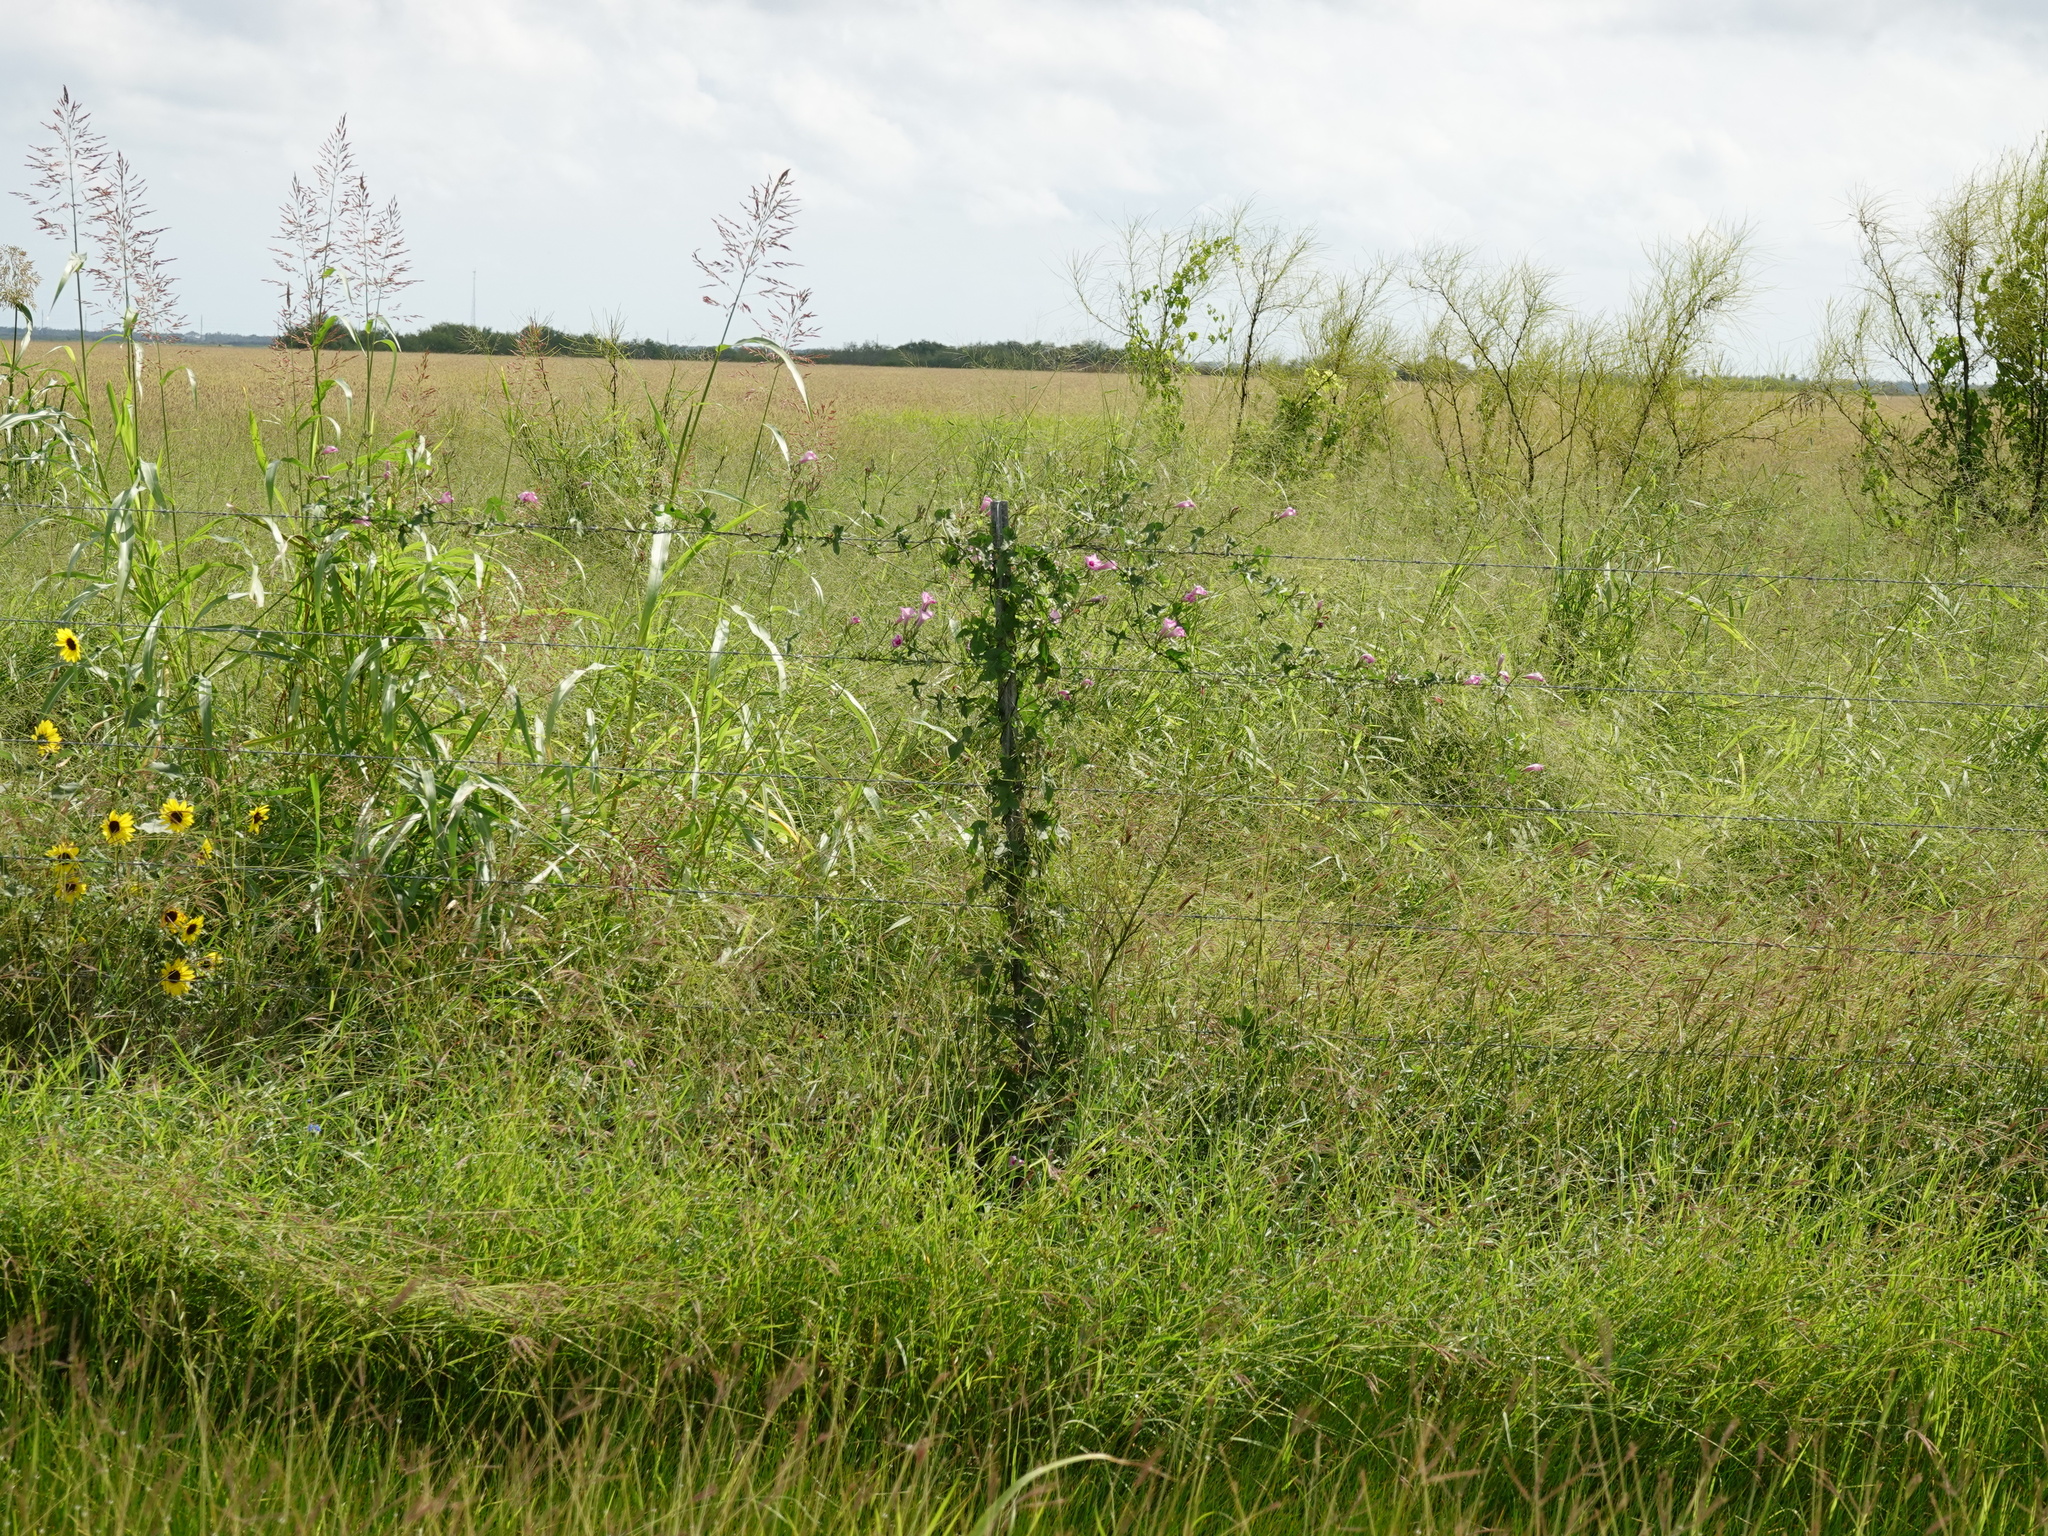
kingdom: Plantae
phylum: Tracheophyta
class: Magnoliopsida
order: Solanales
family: Convolvulaceae
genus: Ipomoea
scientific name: Ipomoea cordatotriloba
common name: Cotton morning glory
